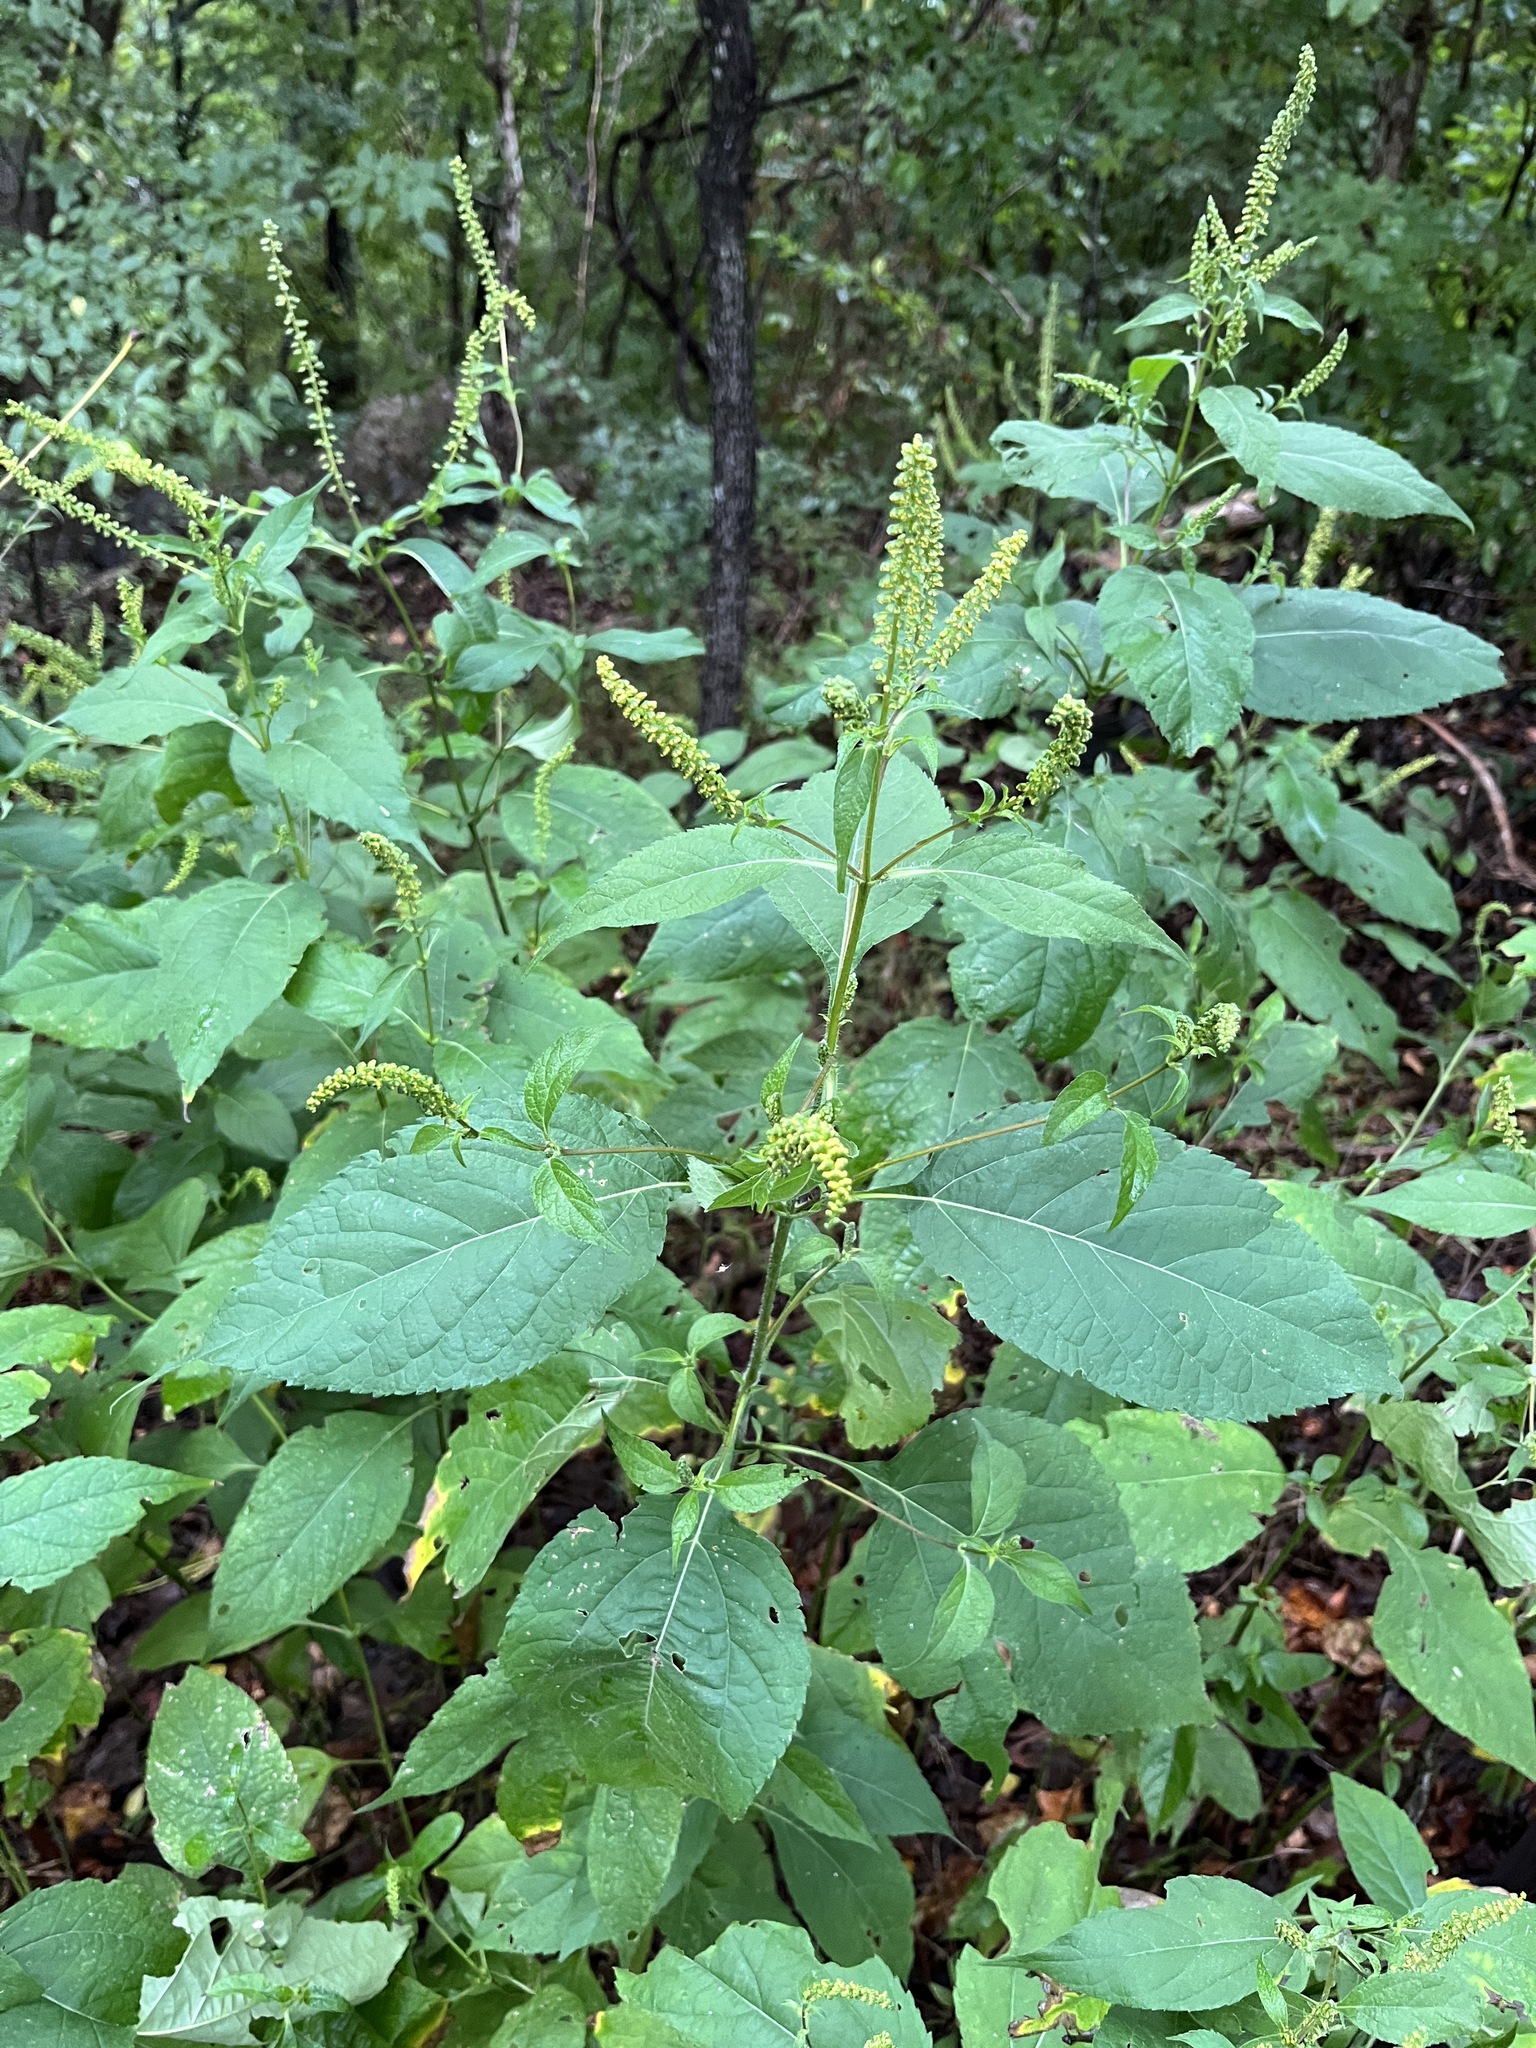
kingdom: Plantae
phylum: Tracheophyta
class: Magnoliopsida
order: Asterales
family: Asteraceae
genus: Ambrosia
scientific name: Ambrosia trifida
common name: Giant ragweed
